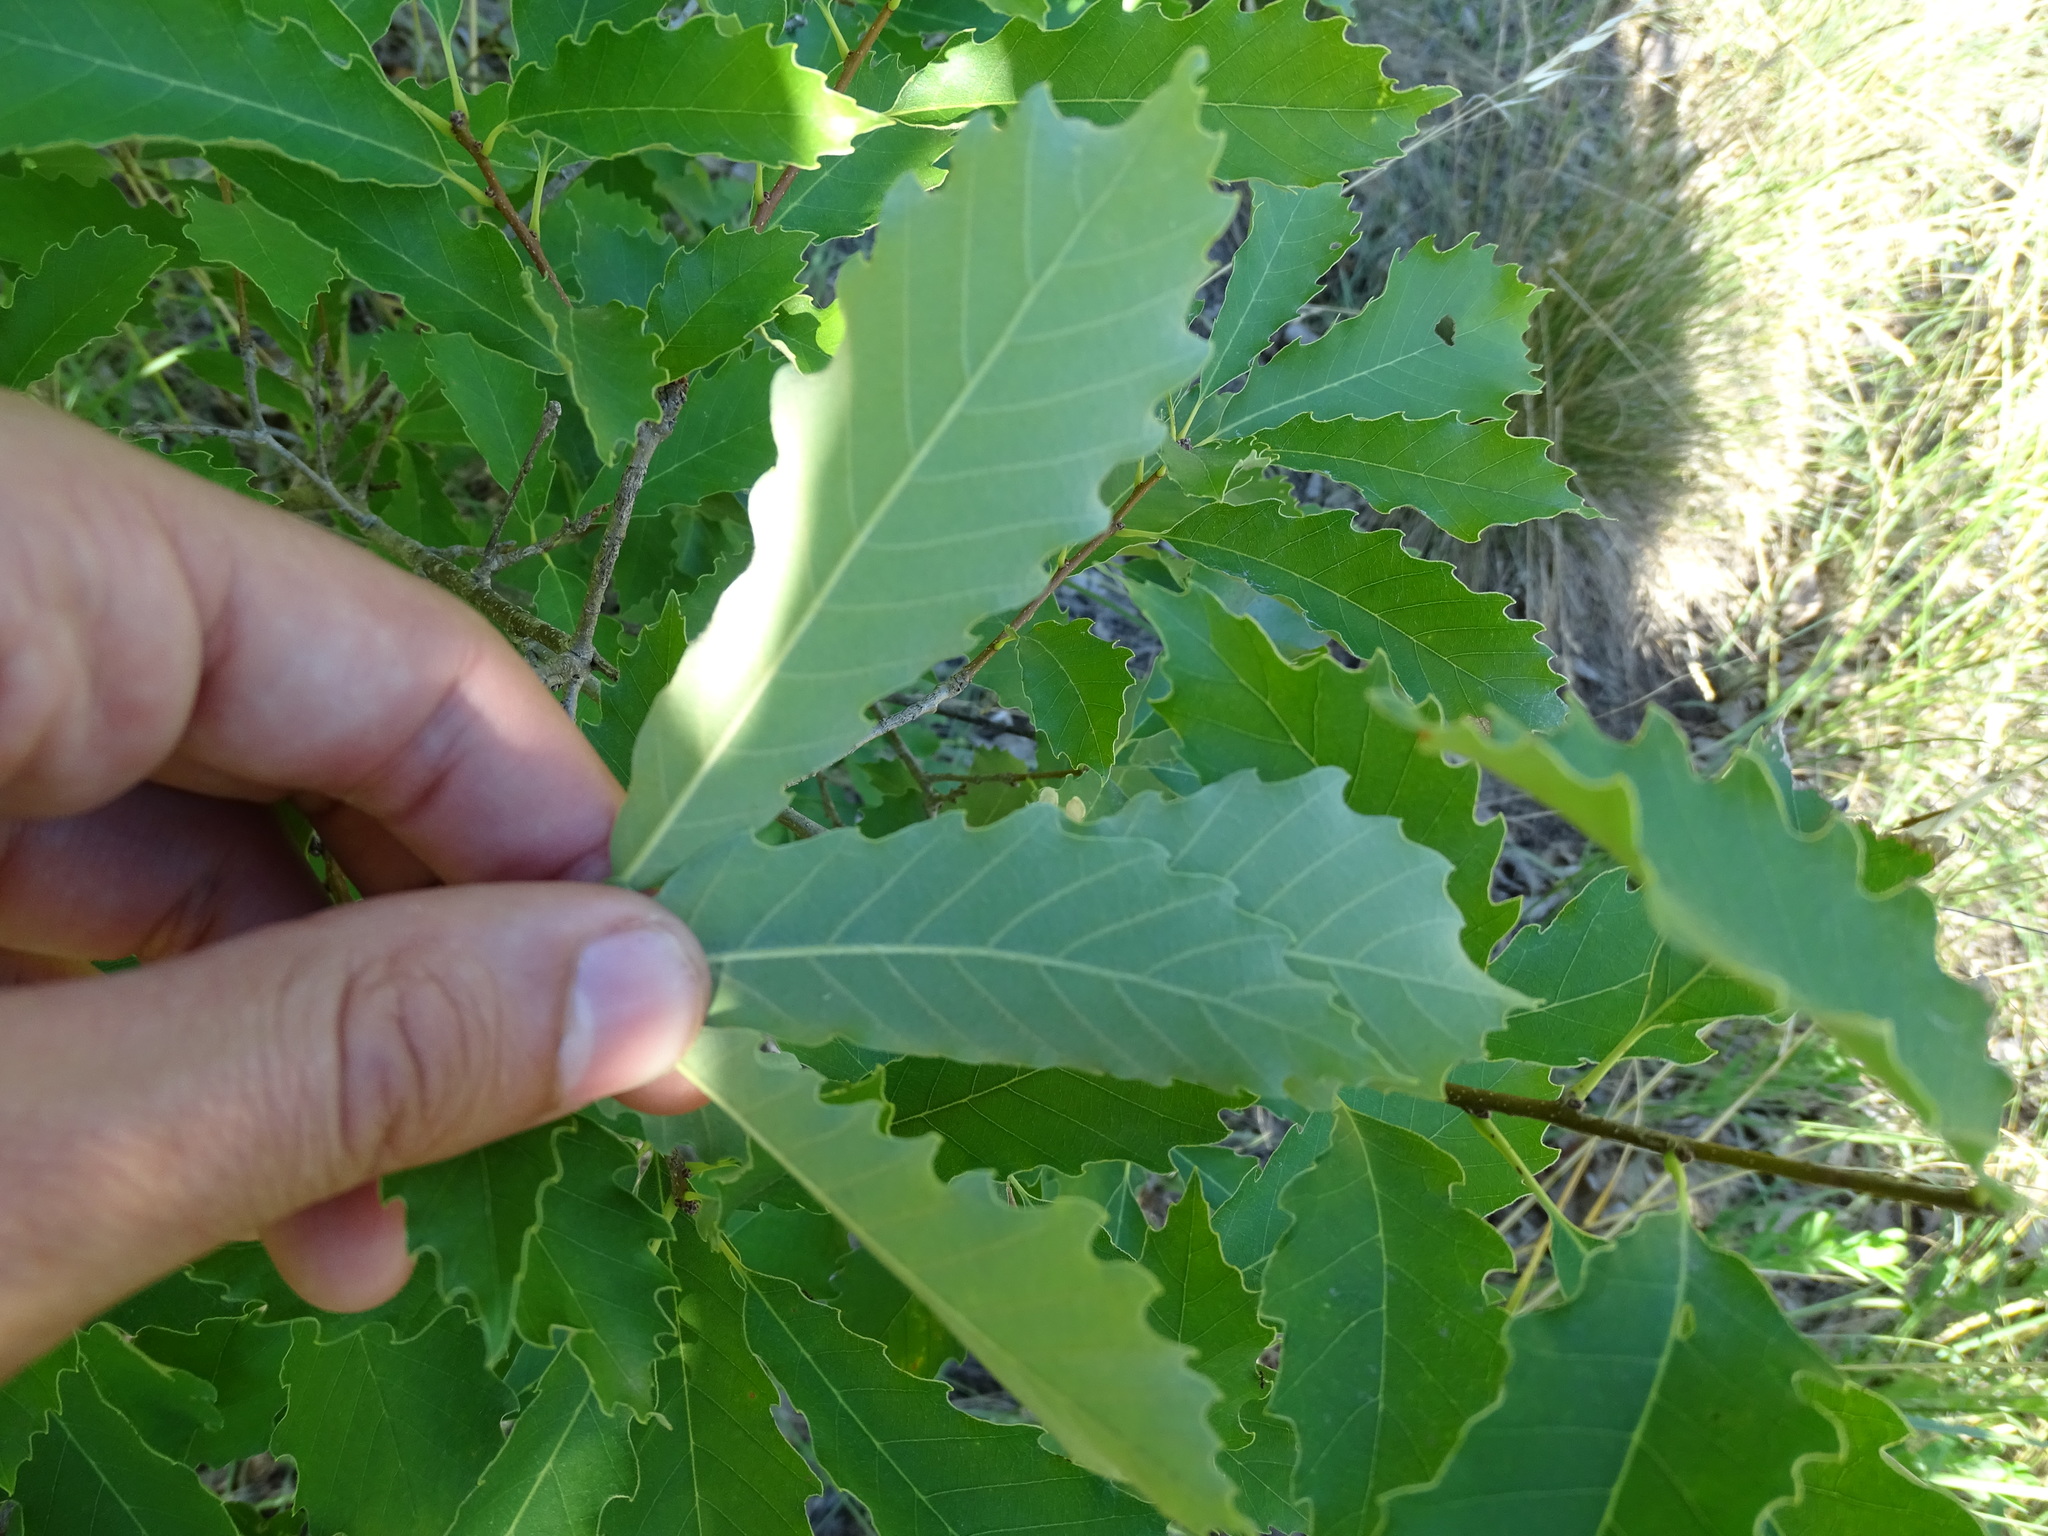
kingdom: Plantae
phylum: Tracheophyta
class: Magnoliopsida
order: Fagales
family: Fagaceae
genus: Quercus
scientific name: Quercus prinoides
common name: Dwarf chinkapin oak
